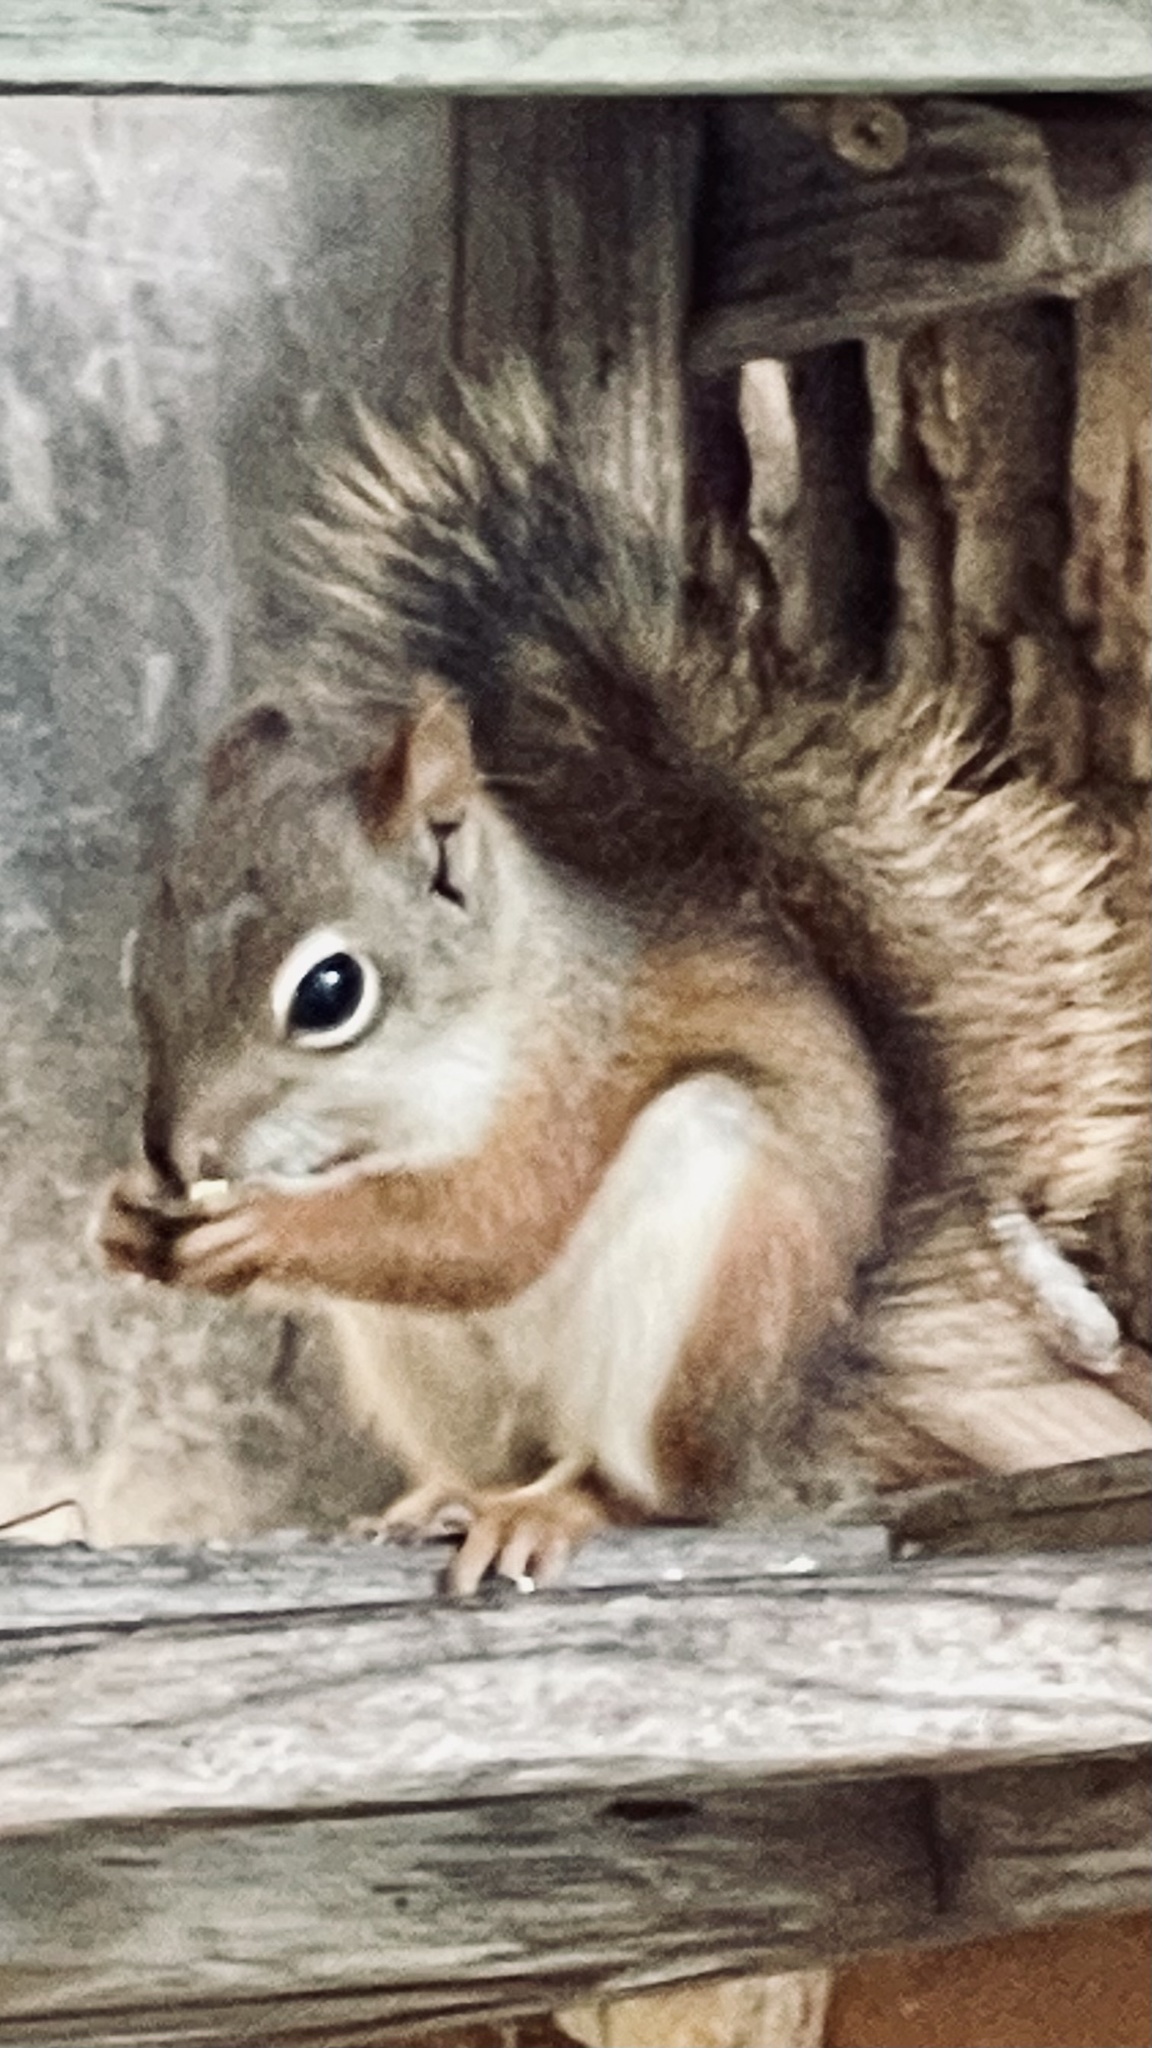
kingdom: Animalia
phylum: Chordata
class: Mammalia
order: Rodentia
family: Sciuridae
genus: Tamiasciurus
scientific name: Tamiasciurus hudsonicus
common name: Red squirrel
